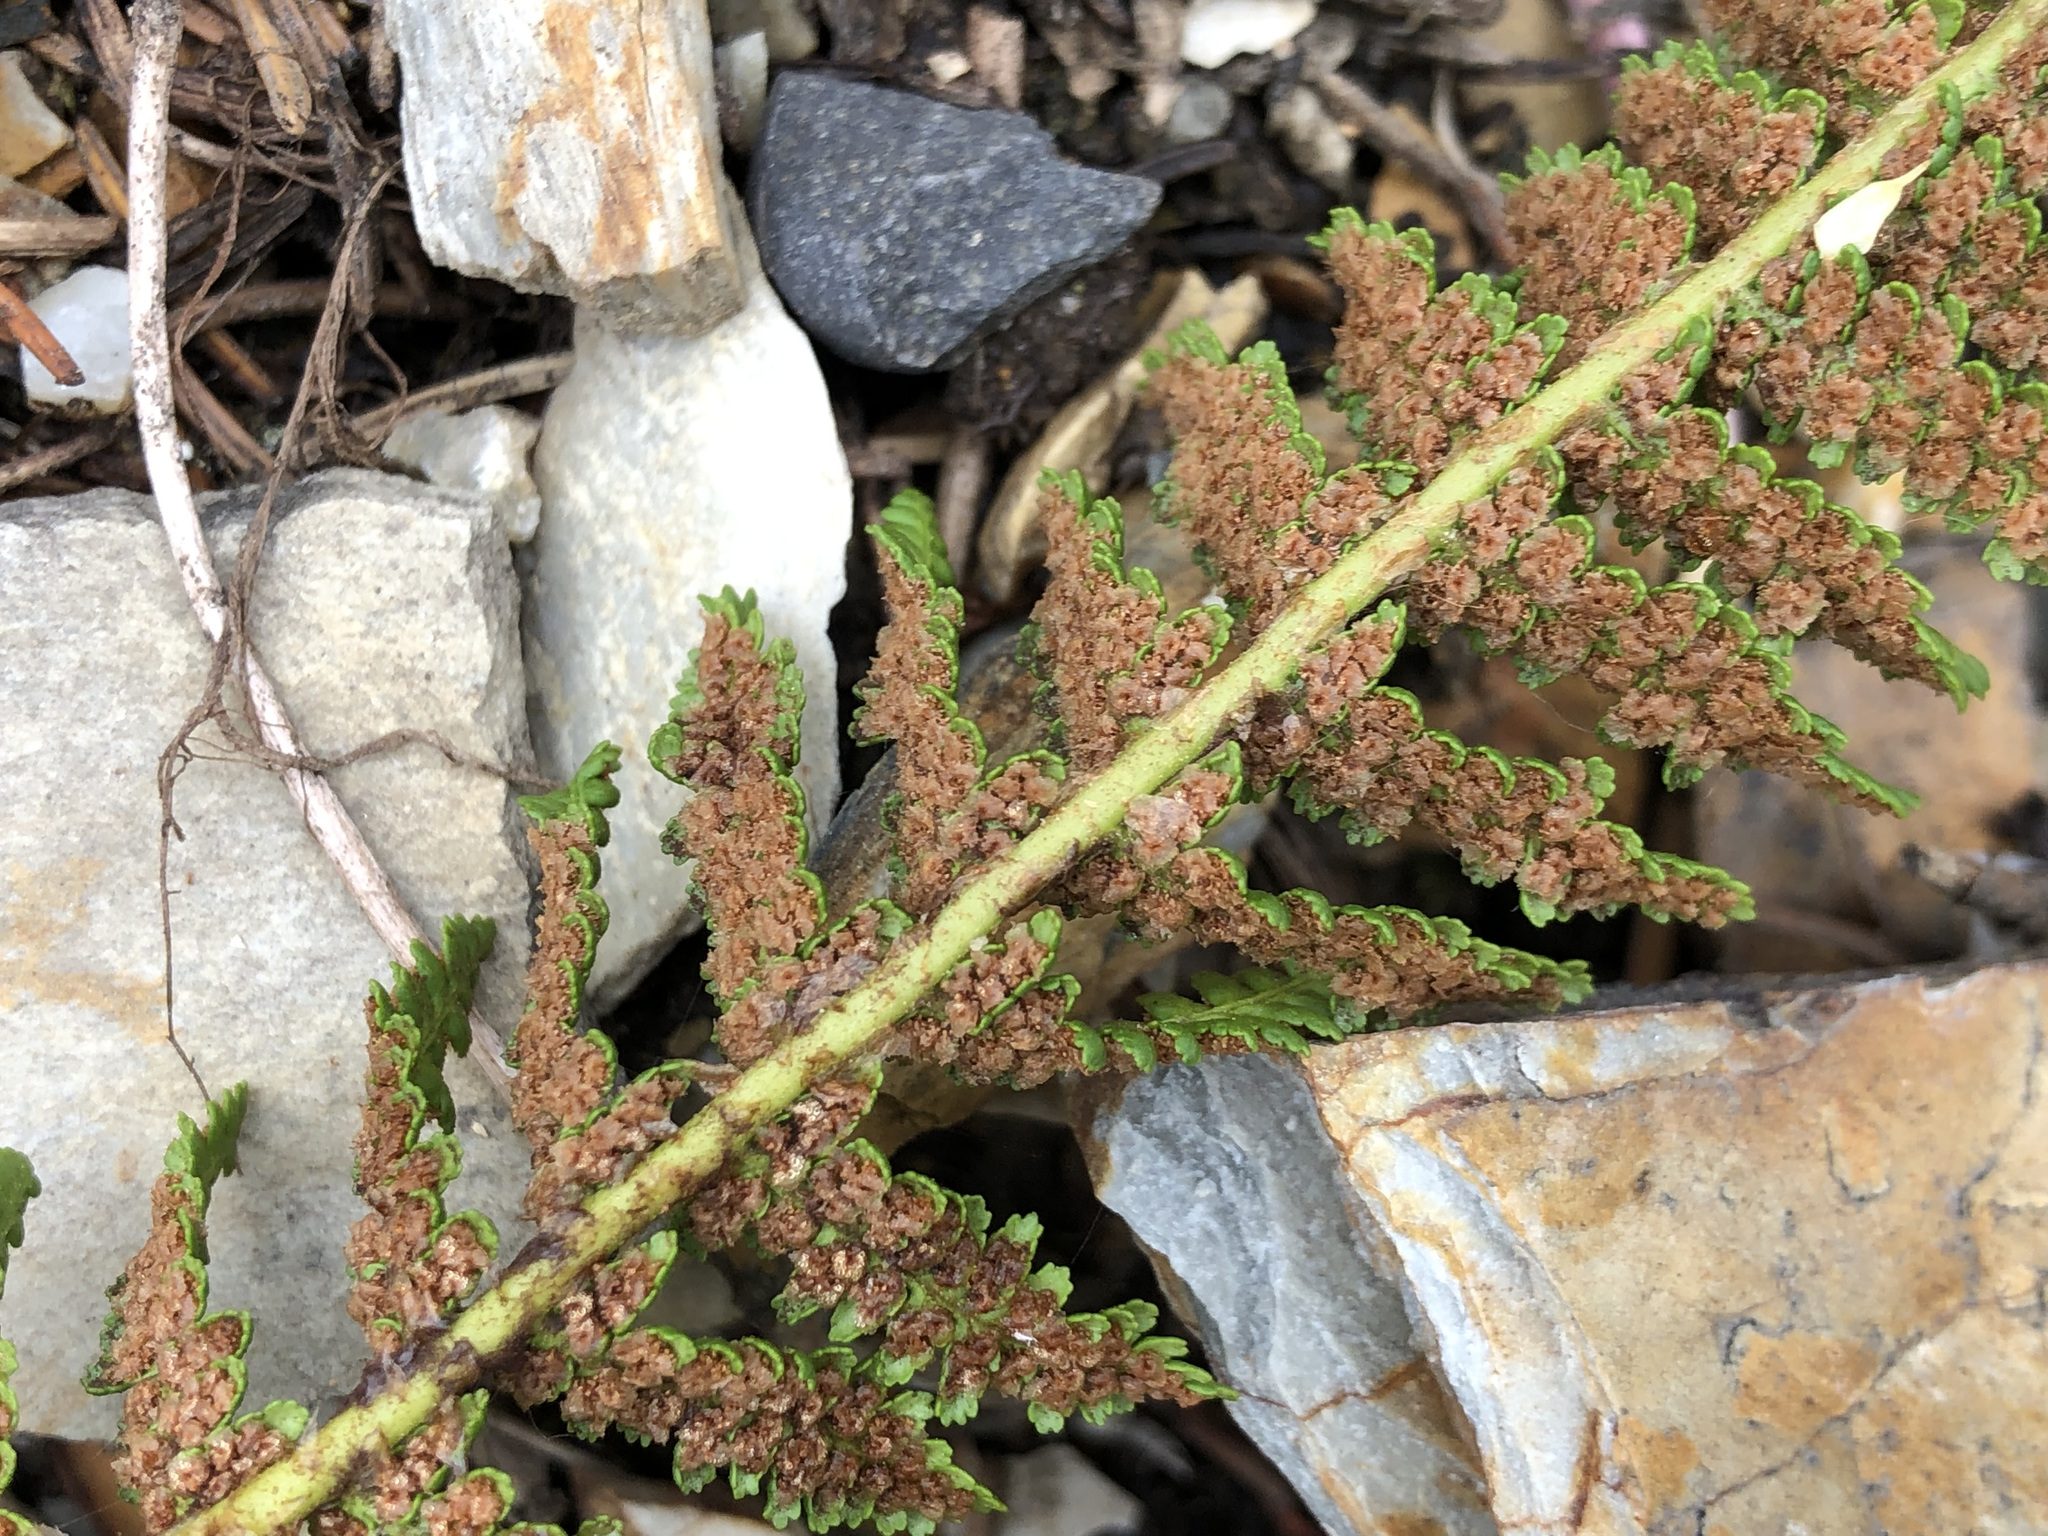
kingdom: Plantae
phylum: Tracheophyta
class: Polypodiopsida
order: Polypodiales
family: Dryopteridaceae
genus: Dryopteris
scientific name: Dryopteris fragrans
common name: Fragrant wood fern
